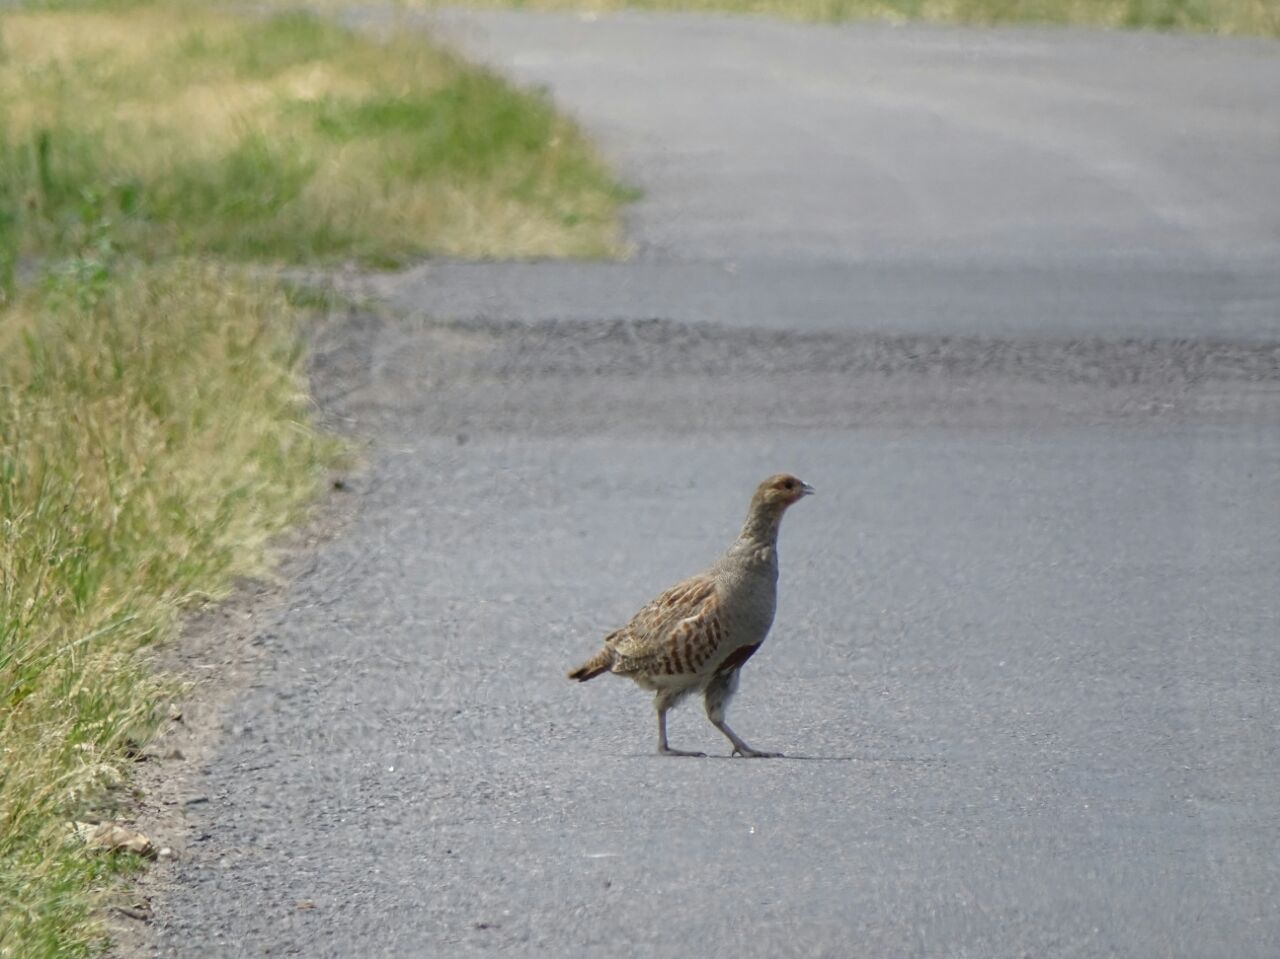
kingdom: Animalia
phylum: Chordata
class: Aves
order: Galliformes
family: Phasianidae
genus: Perdix
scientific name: Perdix perdix
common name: Grey partridge
